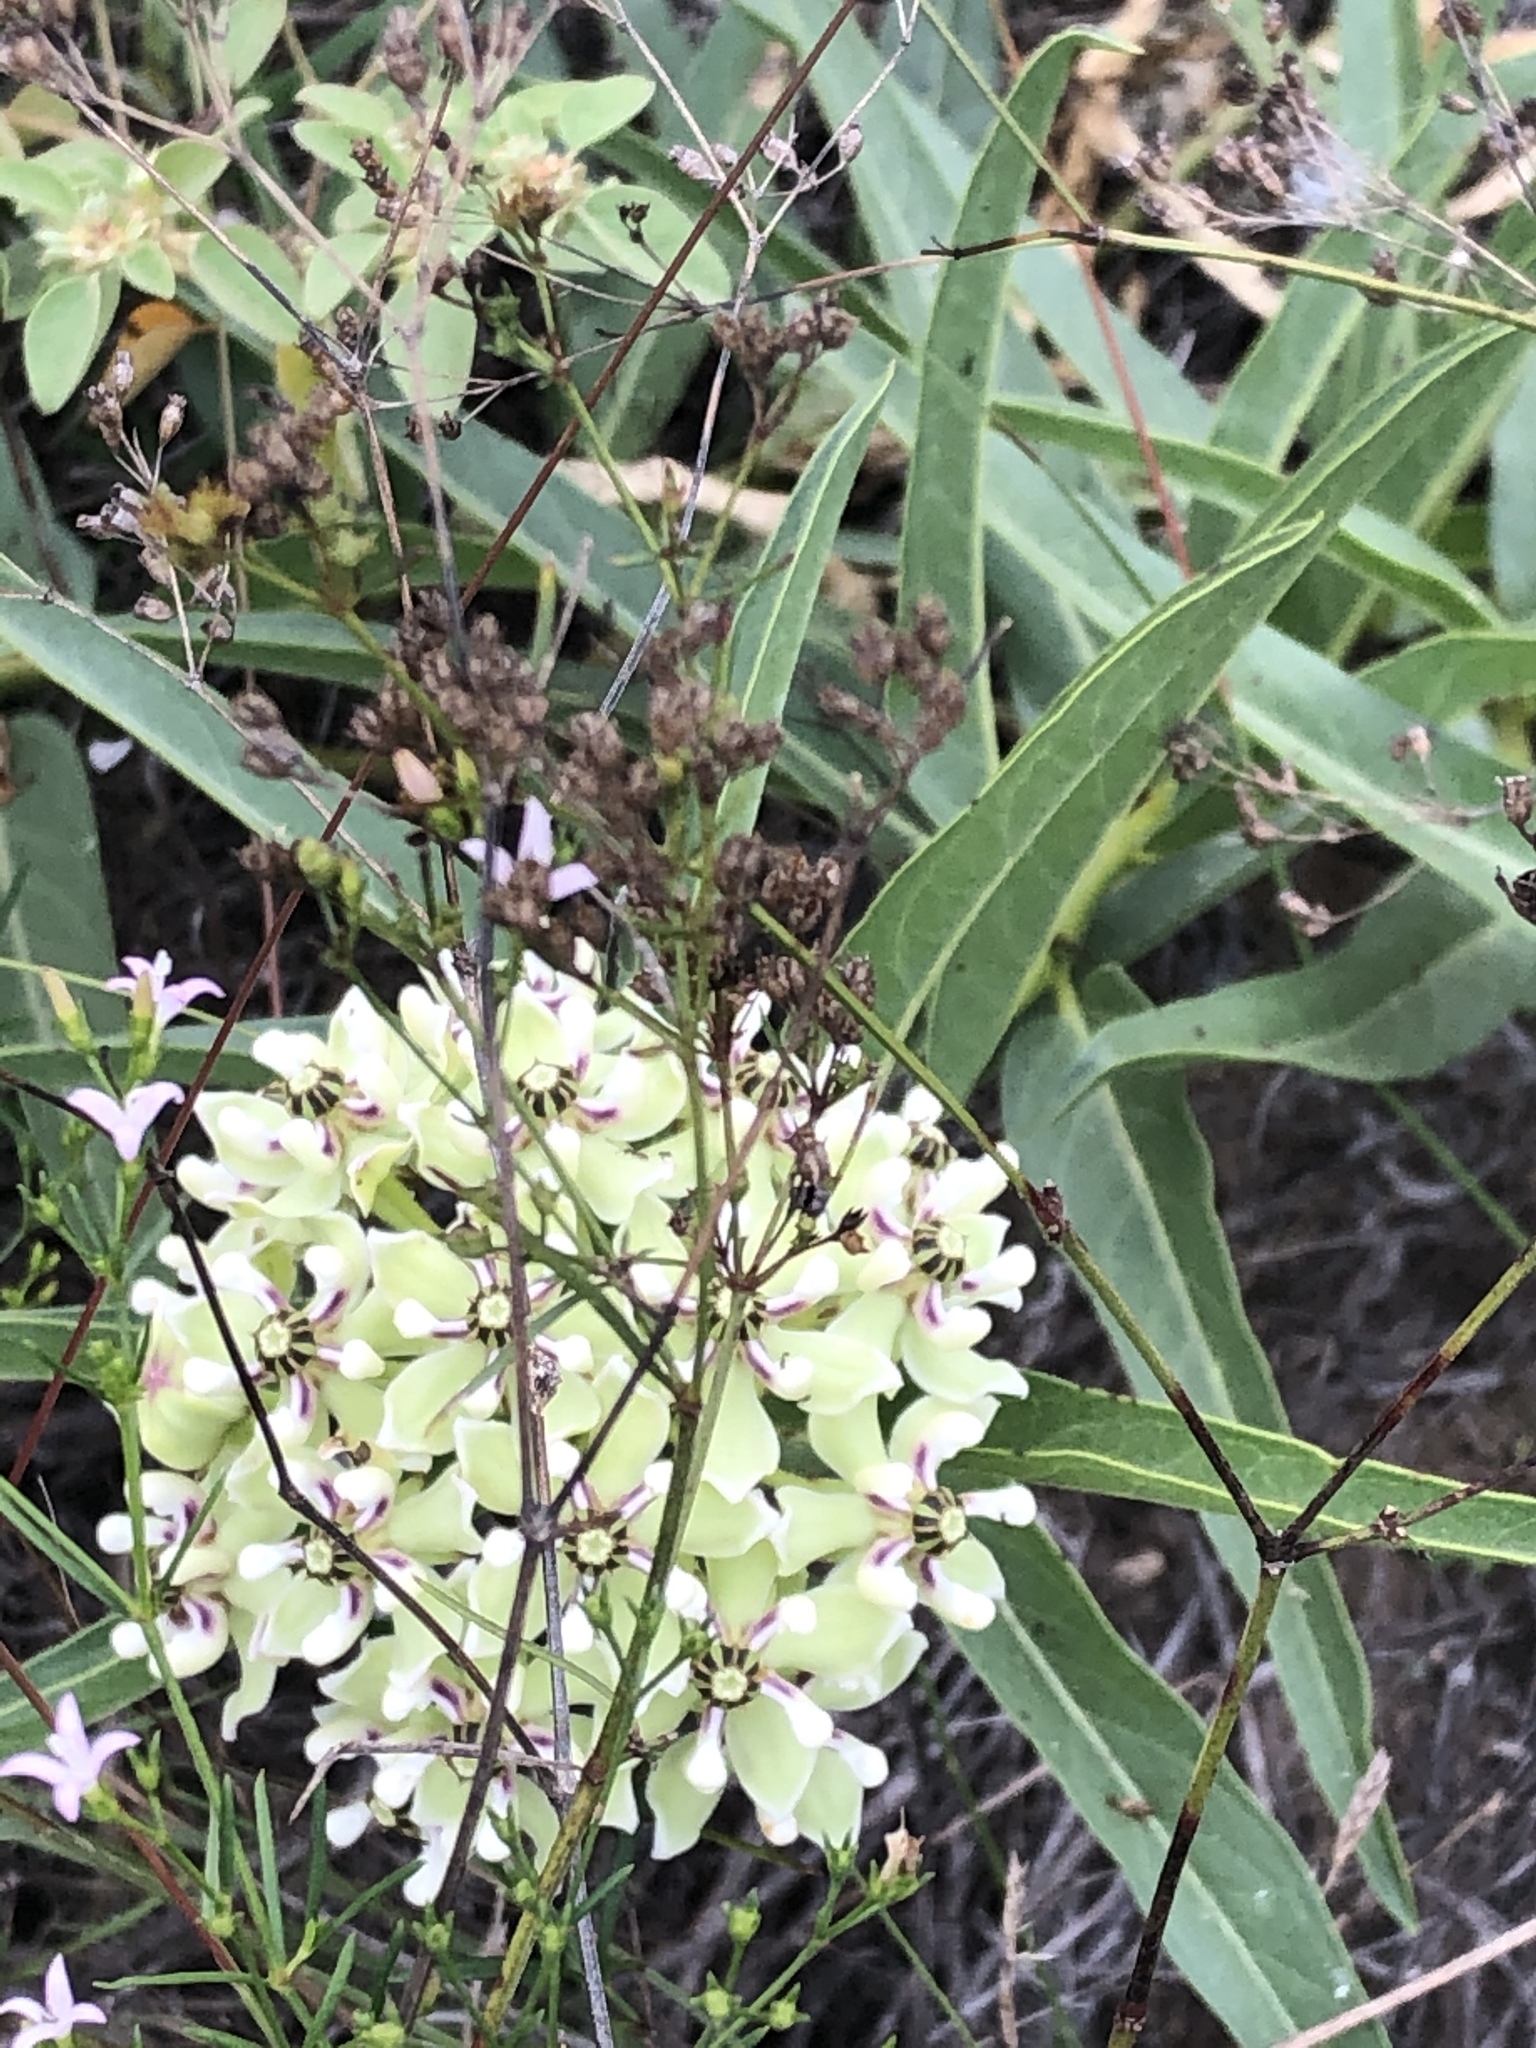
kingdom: Plantae
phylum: Tracheophyta
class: Magnoliopsida
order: Gentianales
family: Apocynaceae
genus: Asclepias
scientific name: Asclepias asperula
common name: Antelope horns
